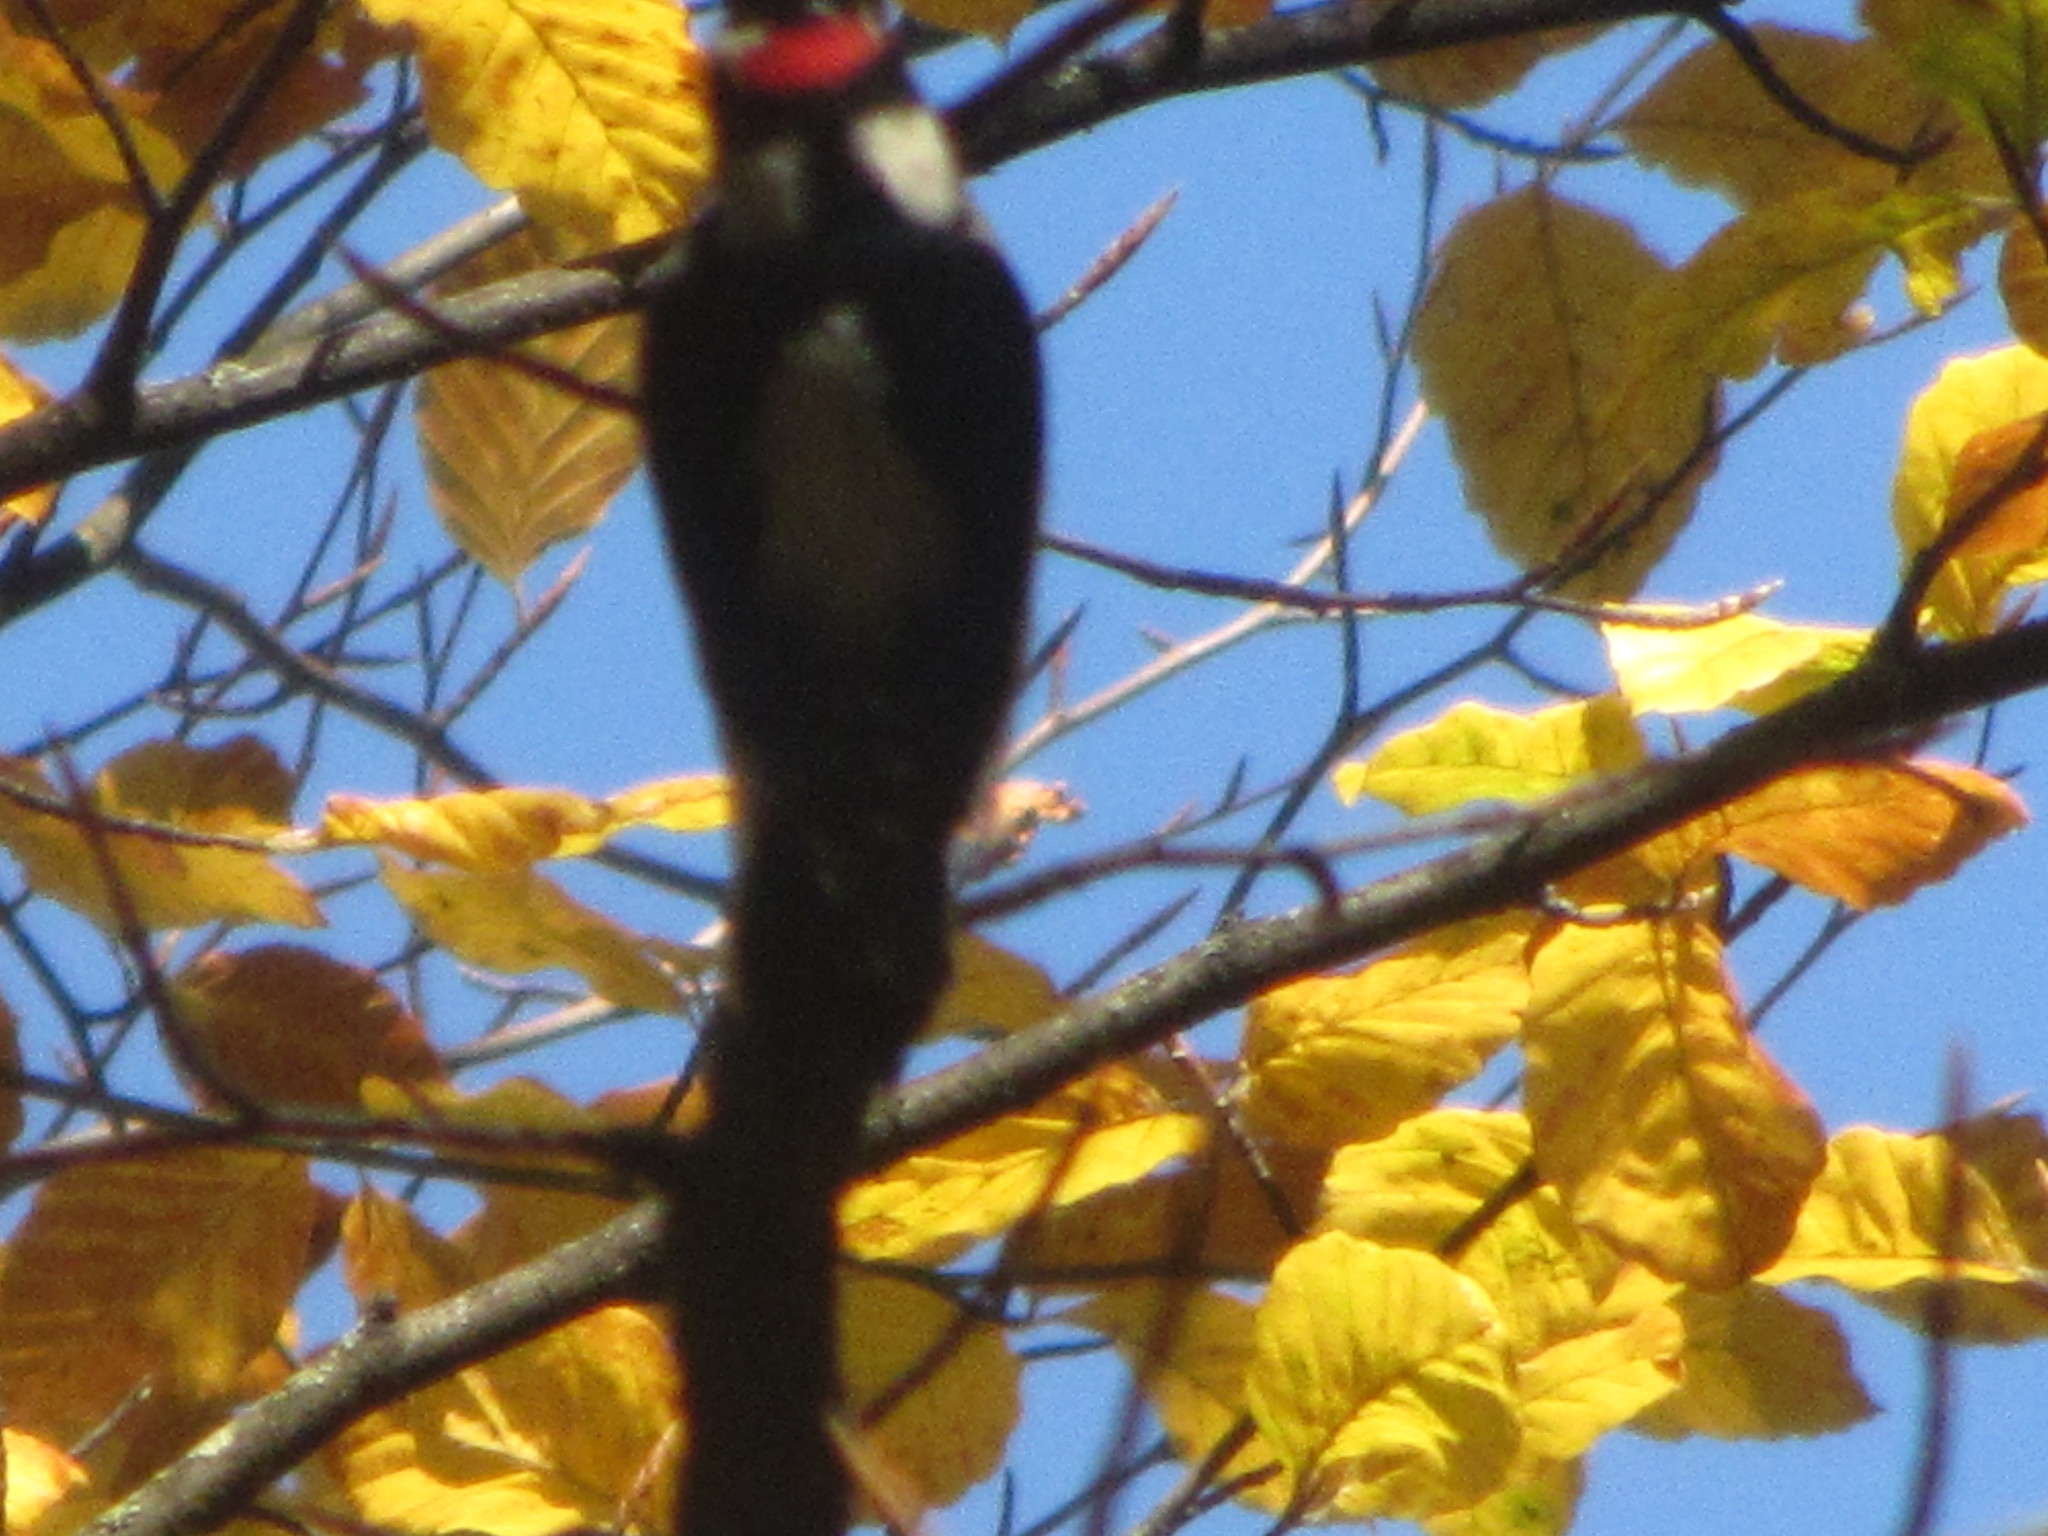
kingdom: Animalia
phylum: Chordata
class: Aves
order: Piciformes
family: Picidae
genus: Dryobates
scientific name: Dryobates pubescens
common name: Downy woodpecker
